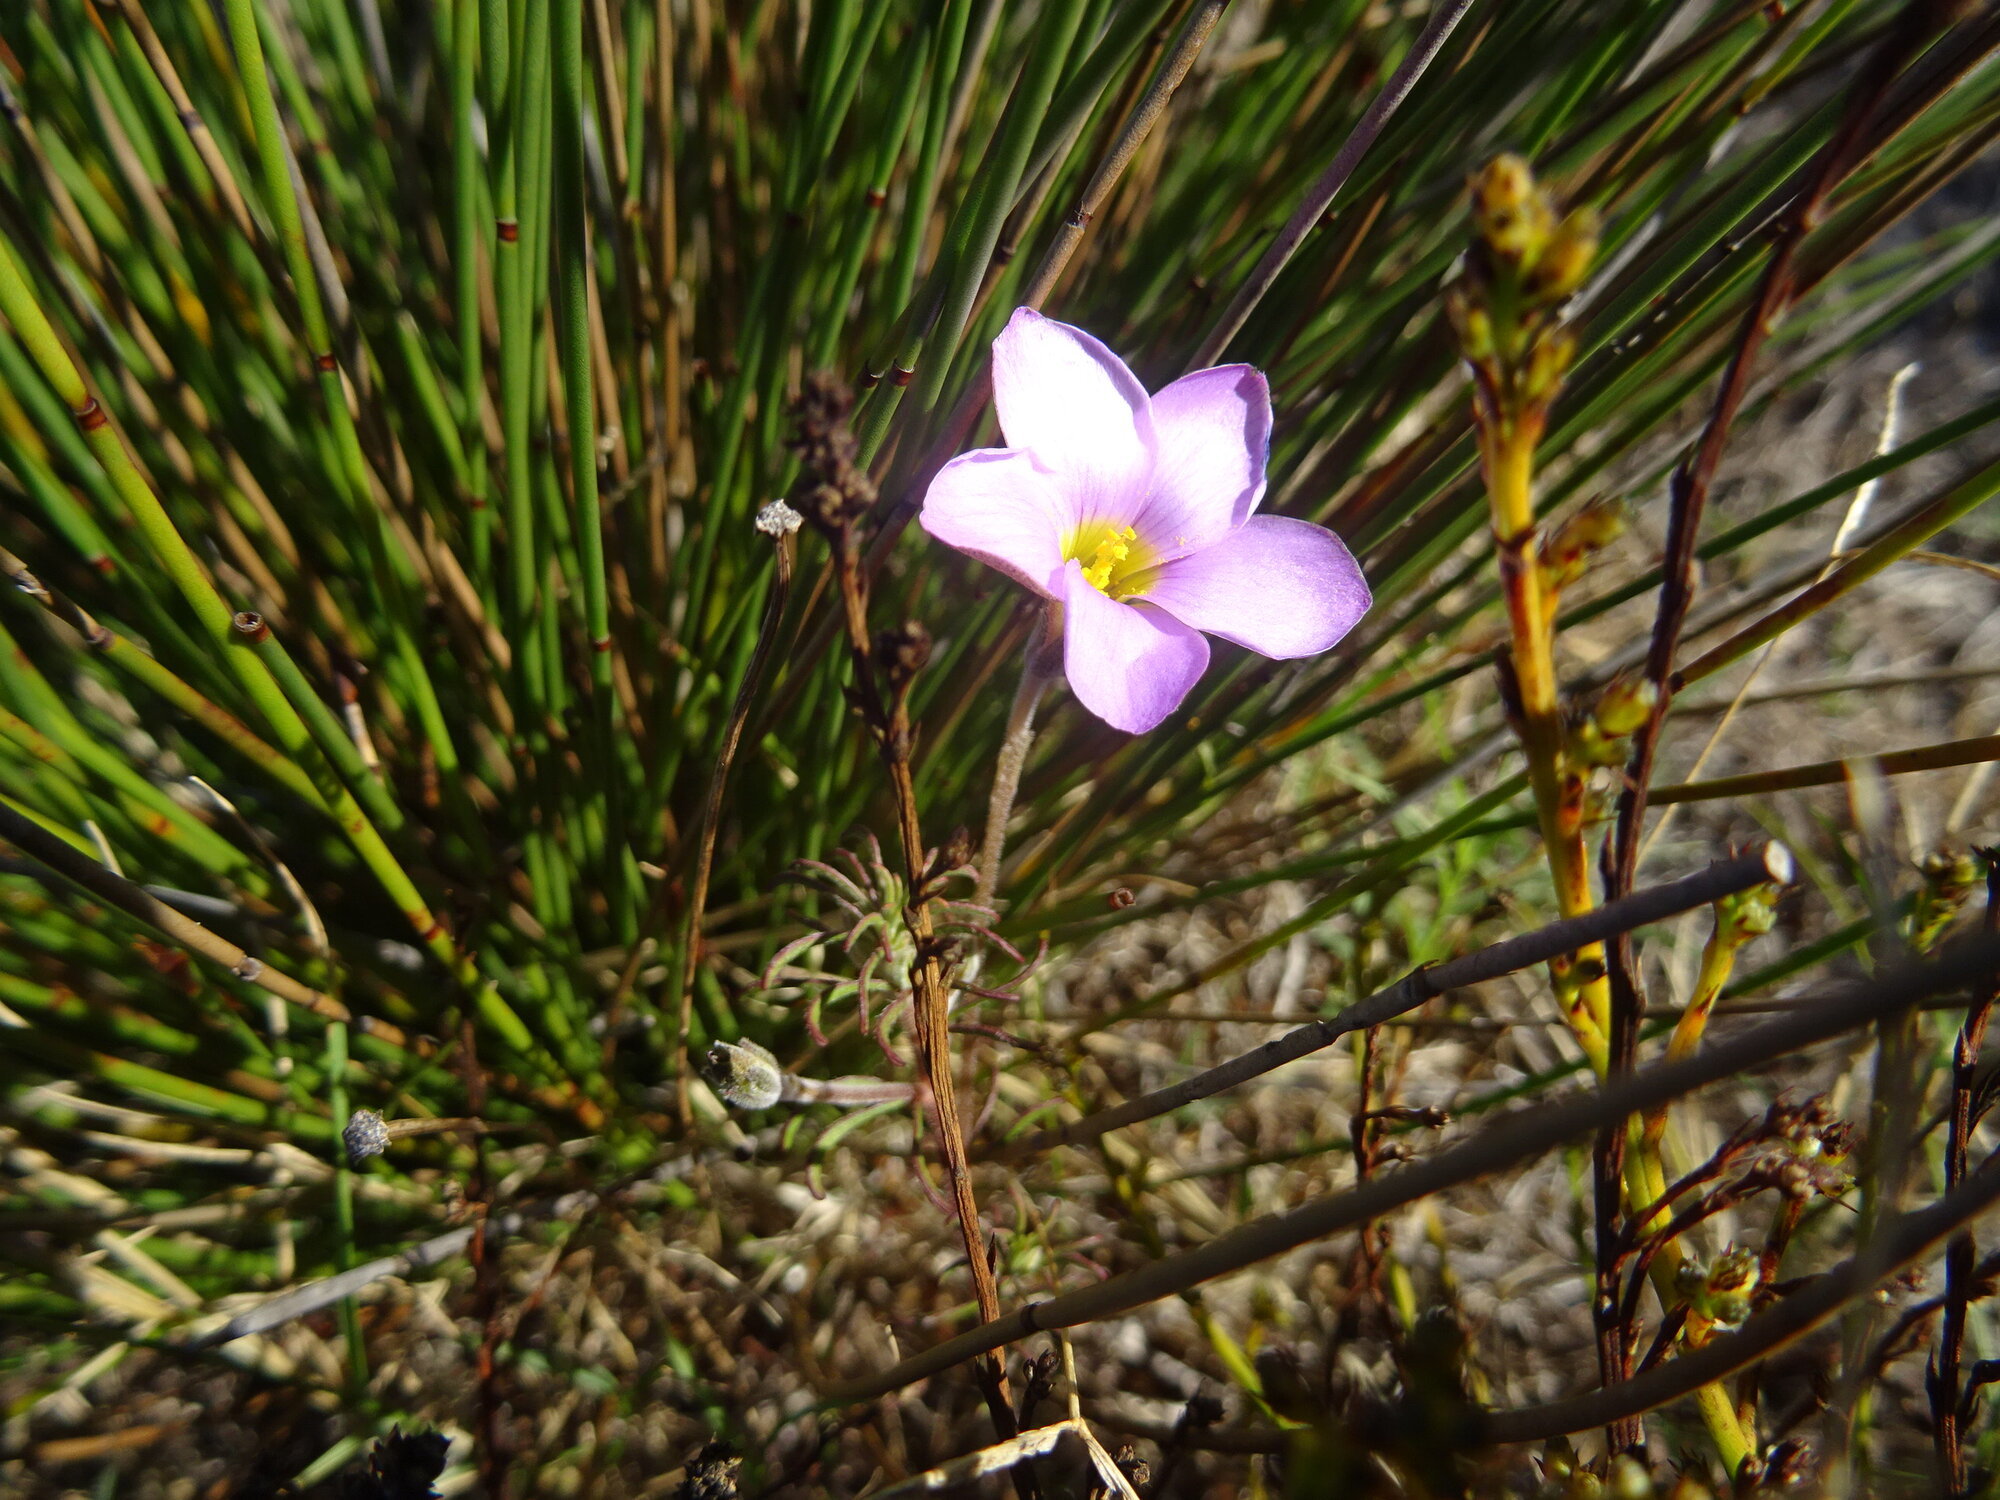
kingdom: Plantae
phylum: Tracheophyta
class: Magnoliopsida
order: Oxalidales
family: Oxalidaceae
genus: Oxalis
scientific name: Oxalis hirta
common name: Tropical woodsorrel
